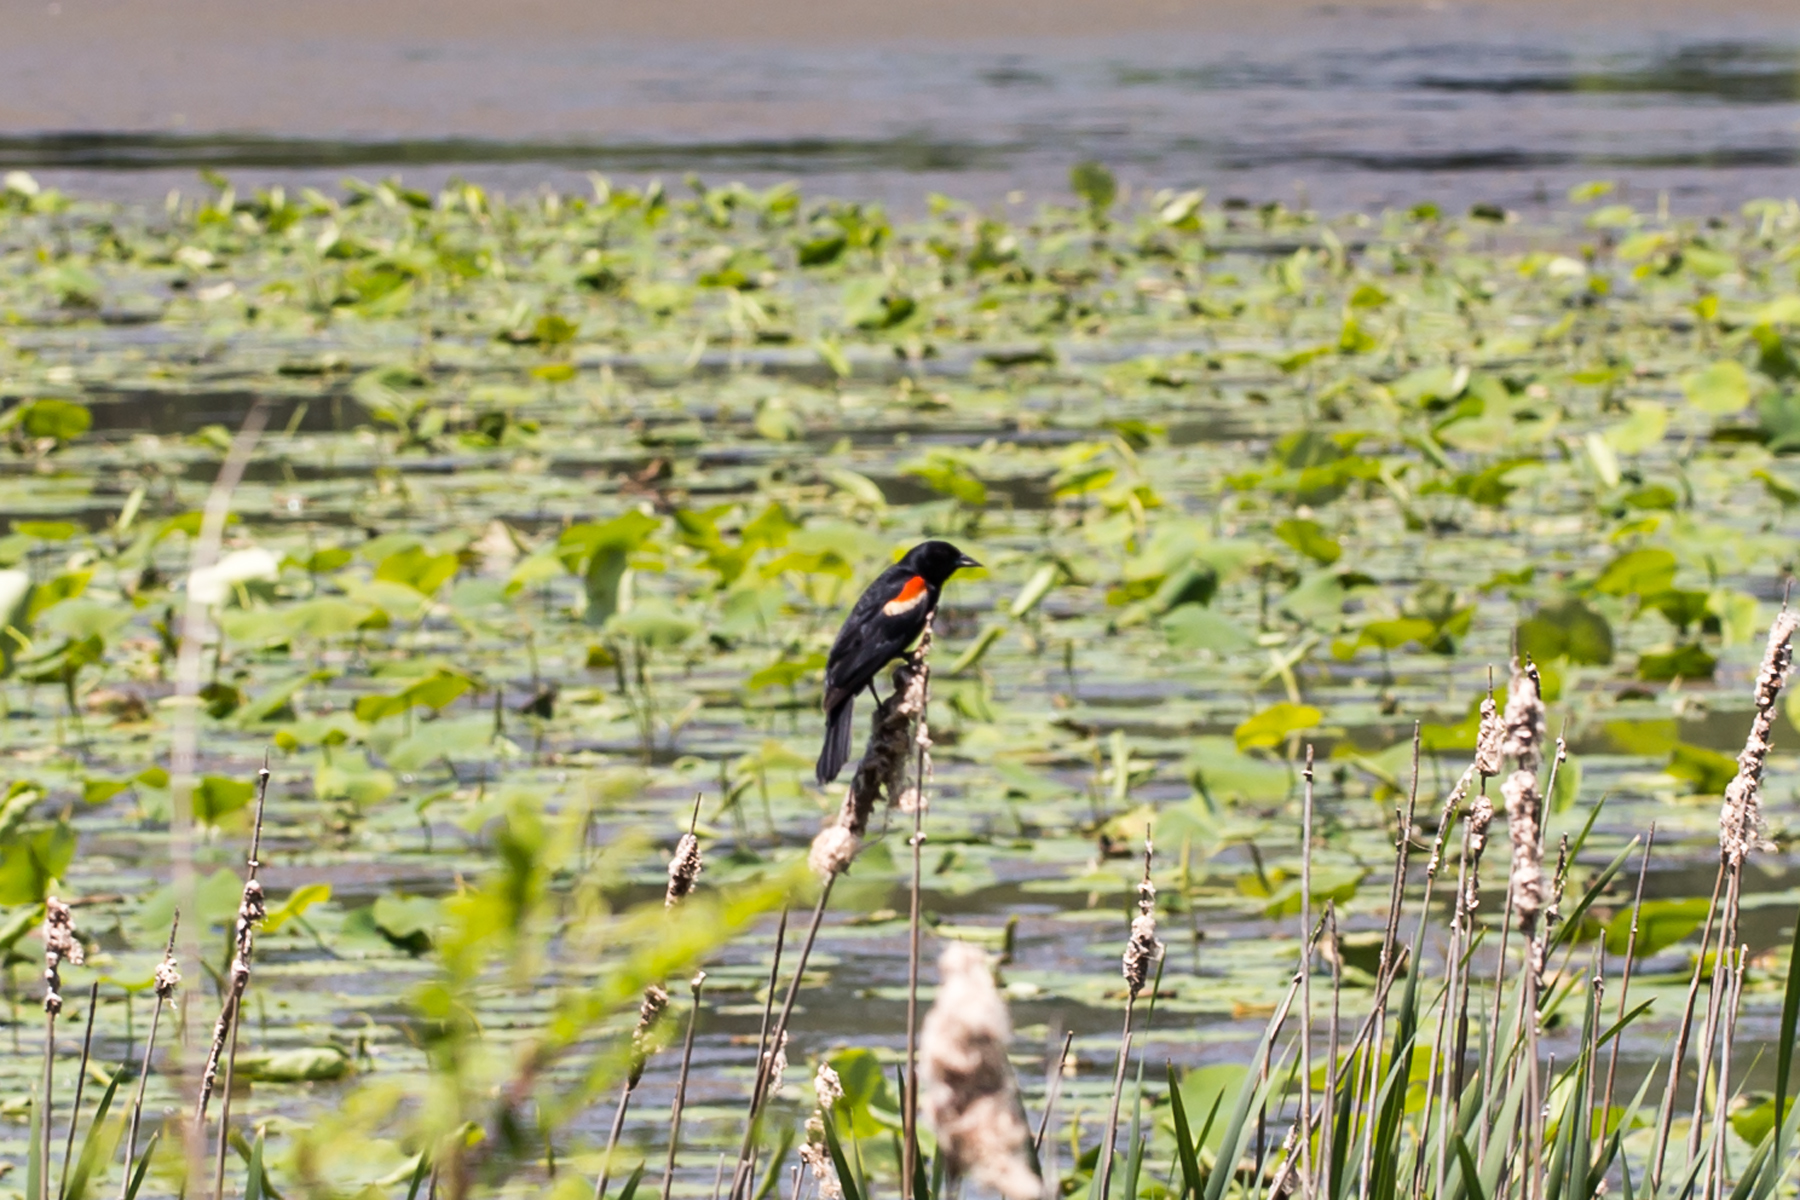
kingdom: Animalia
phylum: Chordata
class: Aves
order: Passeriformes
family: Icteridae
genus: Agelaius
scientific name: Agelaius phoeniceus
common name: Red-winged blackbird
